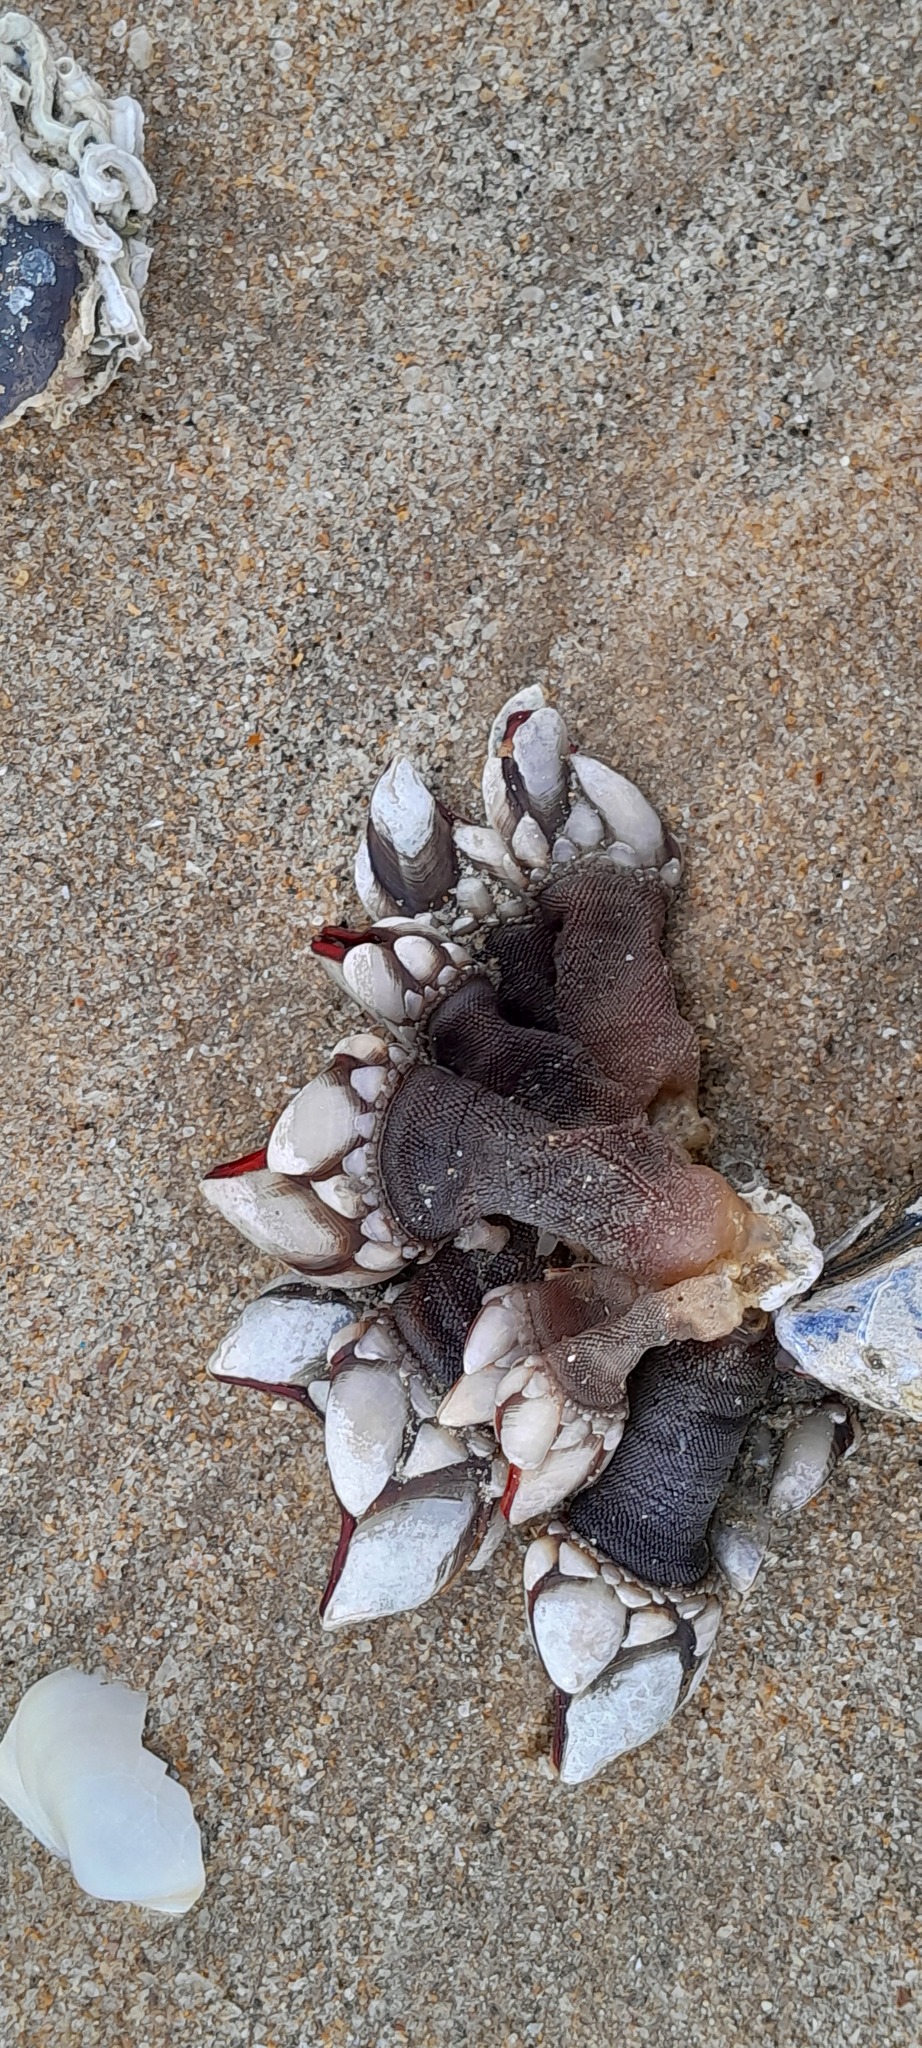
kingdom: Animalia
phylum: Arthropoda
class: Maxillopoda
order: Pedunculata
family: Pollicipedidae
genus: Pollicipes
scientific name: Pollicipes pollicipes
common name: Gooseneck barnacle
